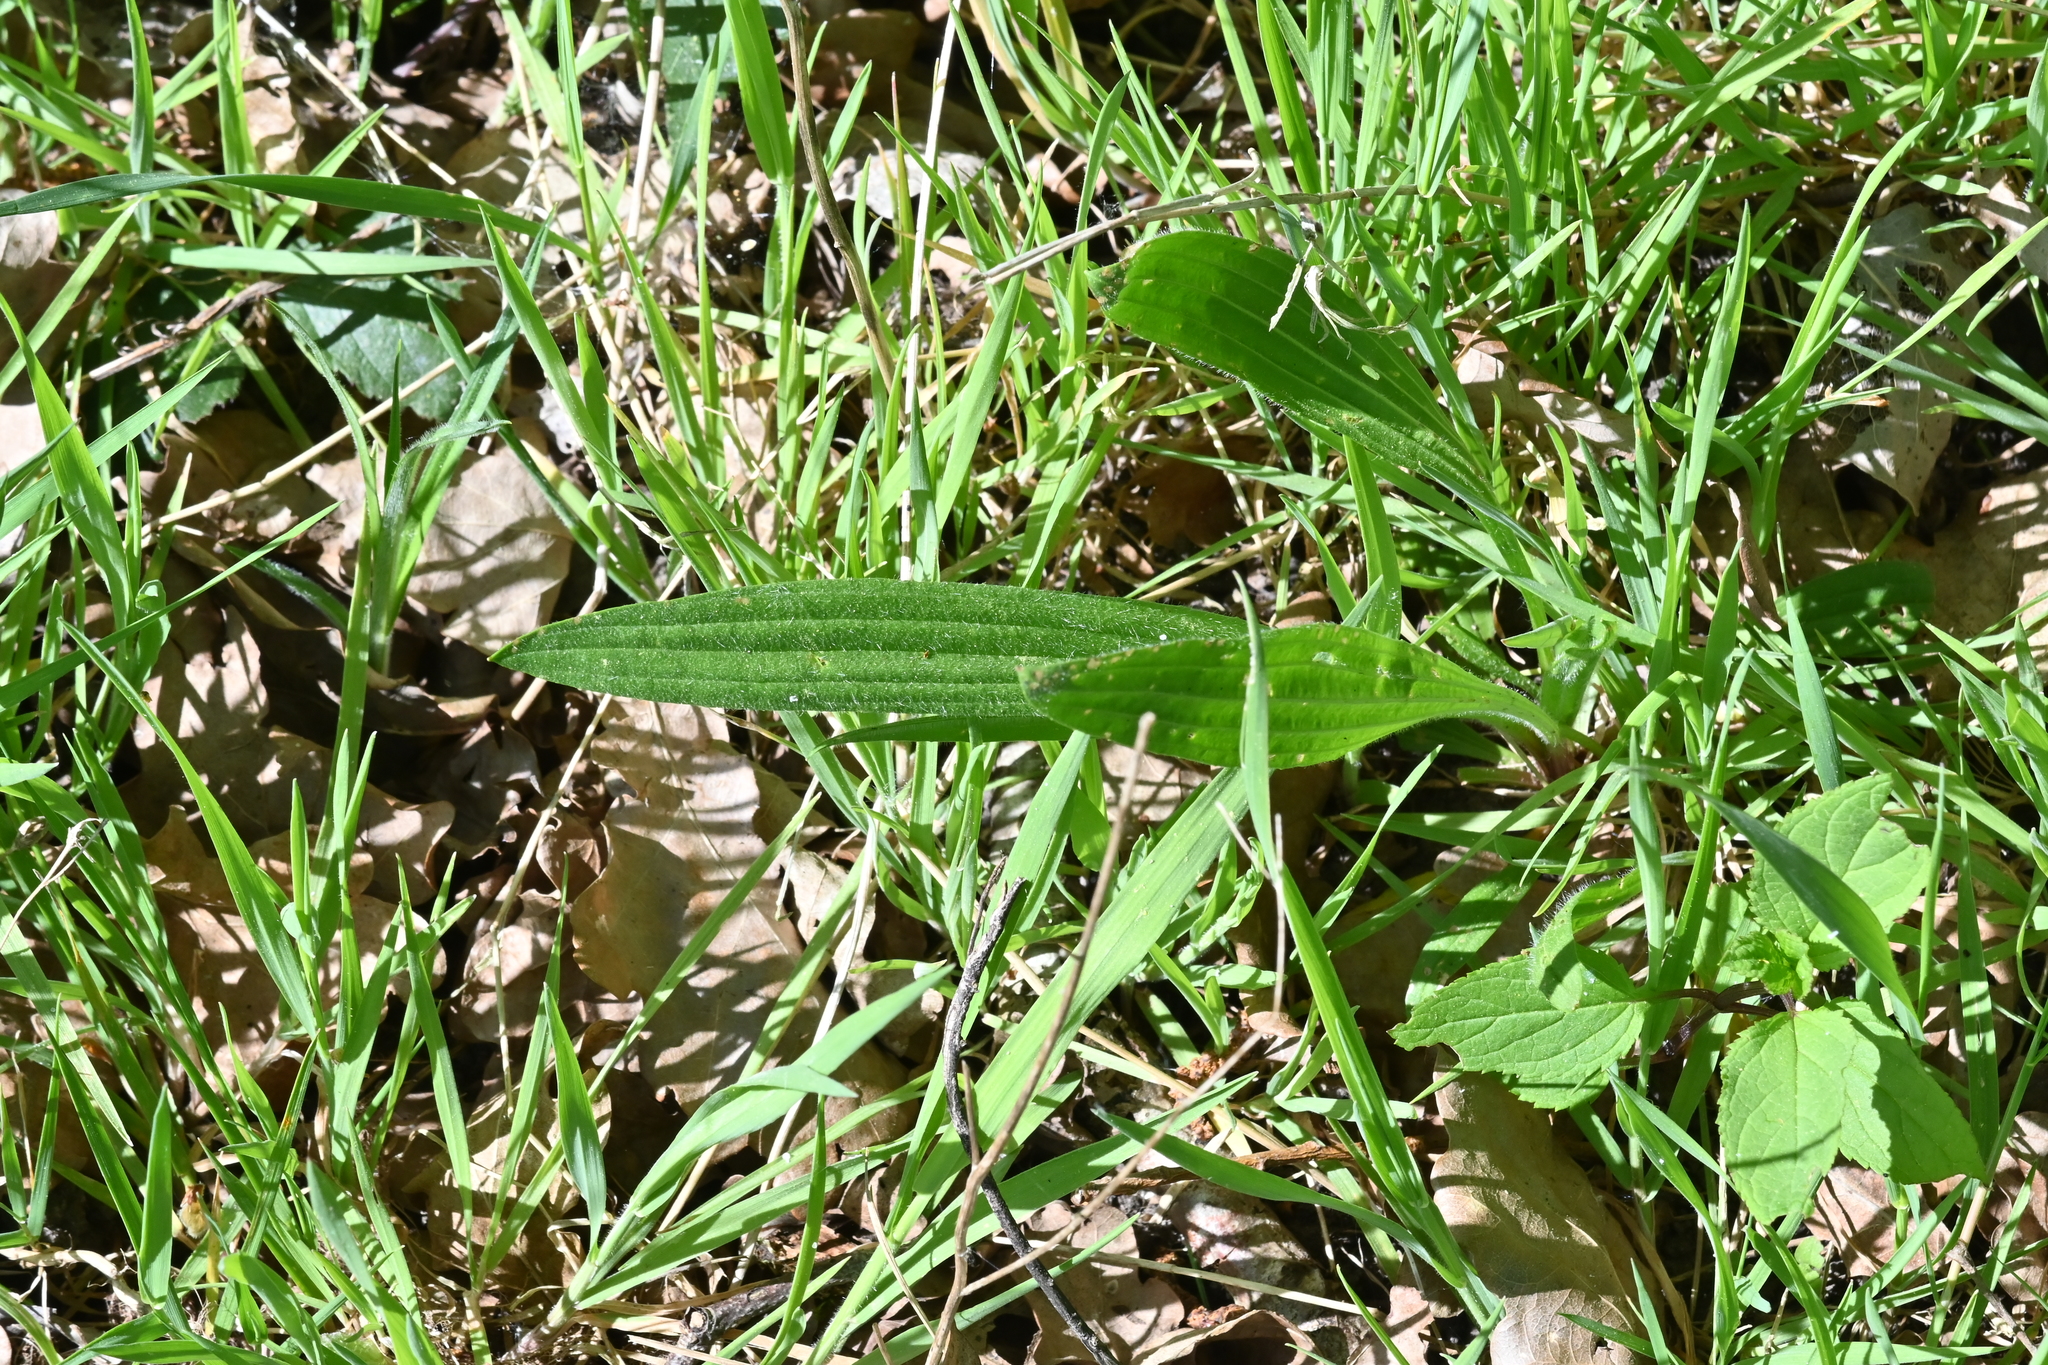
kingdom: Plantae
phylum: Tracheophyta
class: Magnoliopsida
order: Lamiales
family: Plantaginaceae
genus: Plantago
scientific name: Plantago lanceolata
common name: Ribwort plantain
